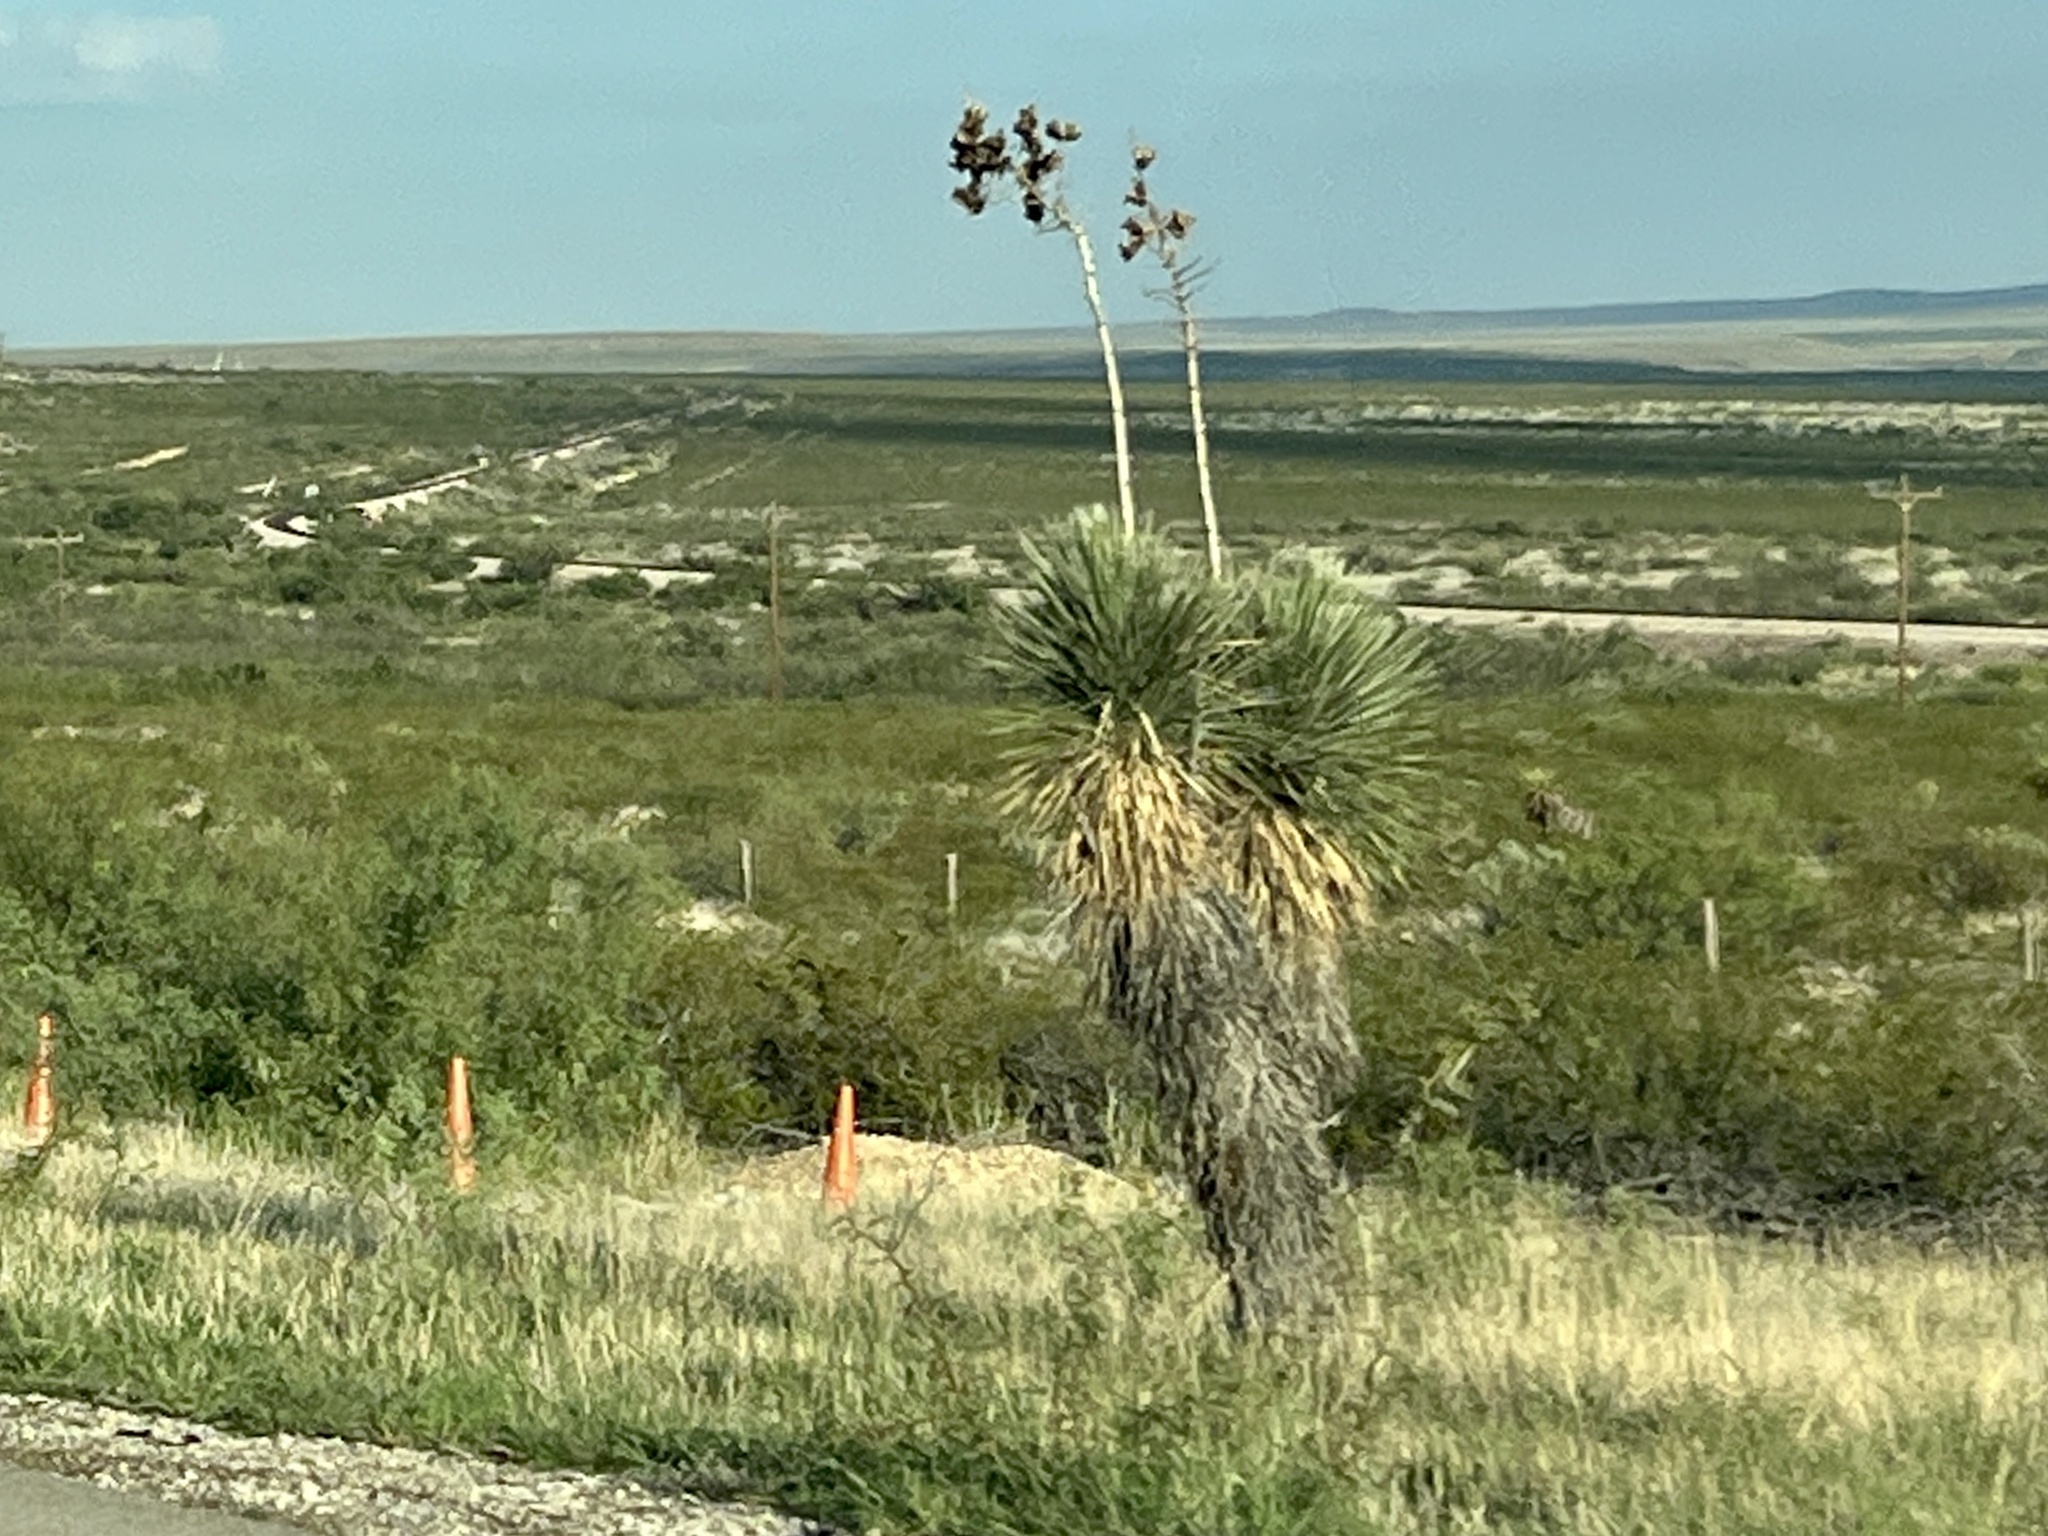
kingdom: Plantae
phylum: Tracheophyta
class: Liliopsida
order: Asparagales
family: Asparagaceae
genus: Yucca
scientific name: Yucca elata
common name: Palmella
